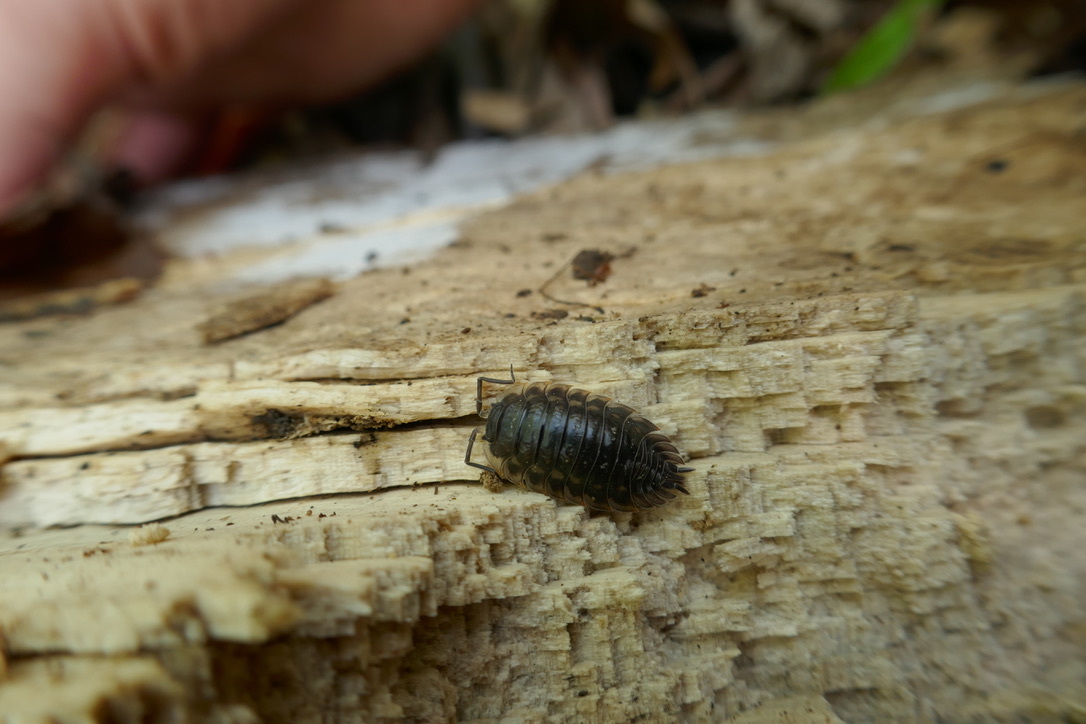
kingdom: Animalia
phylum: Arthropoda
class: Malacostraca
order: Isopoda
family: Oniscidae
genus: Oniscus
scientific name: Oniscus asellus
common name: Common shiny woodlouse
